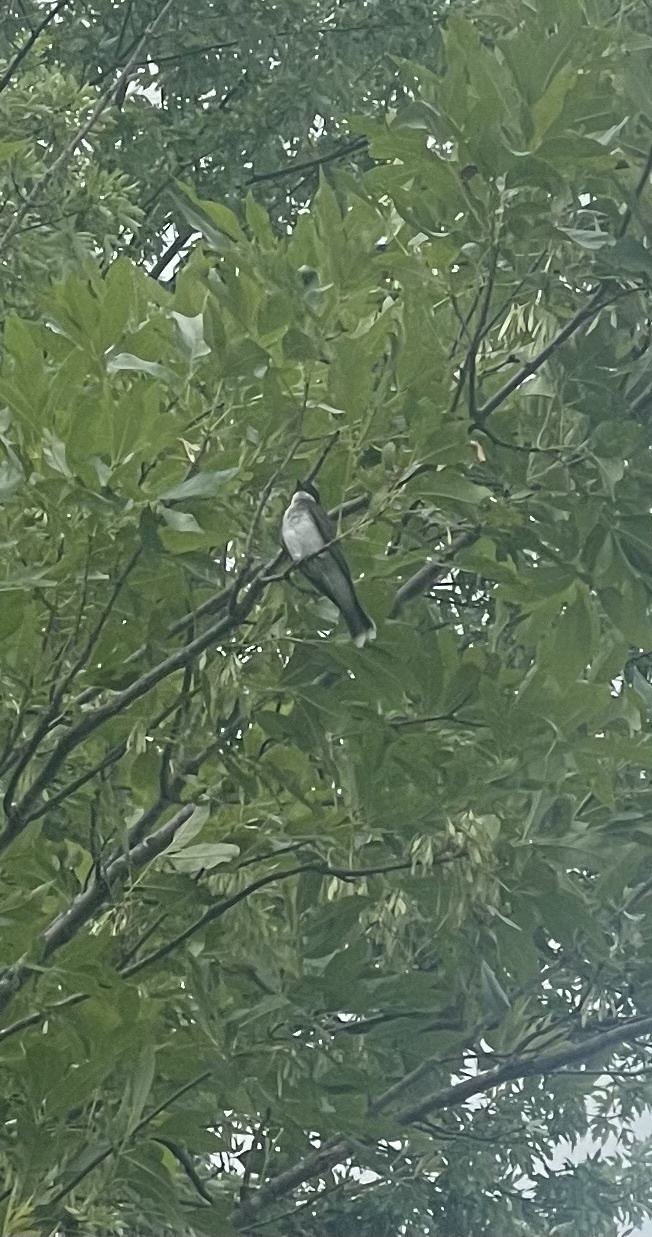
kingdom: Animalia
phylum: Chordata
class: Aves
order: Passeriformes
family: Tyrannidae
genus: Tyrannus
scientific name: Tyrannus tyrannus
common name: Eastern kingbird
